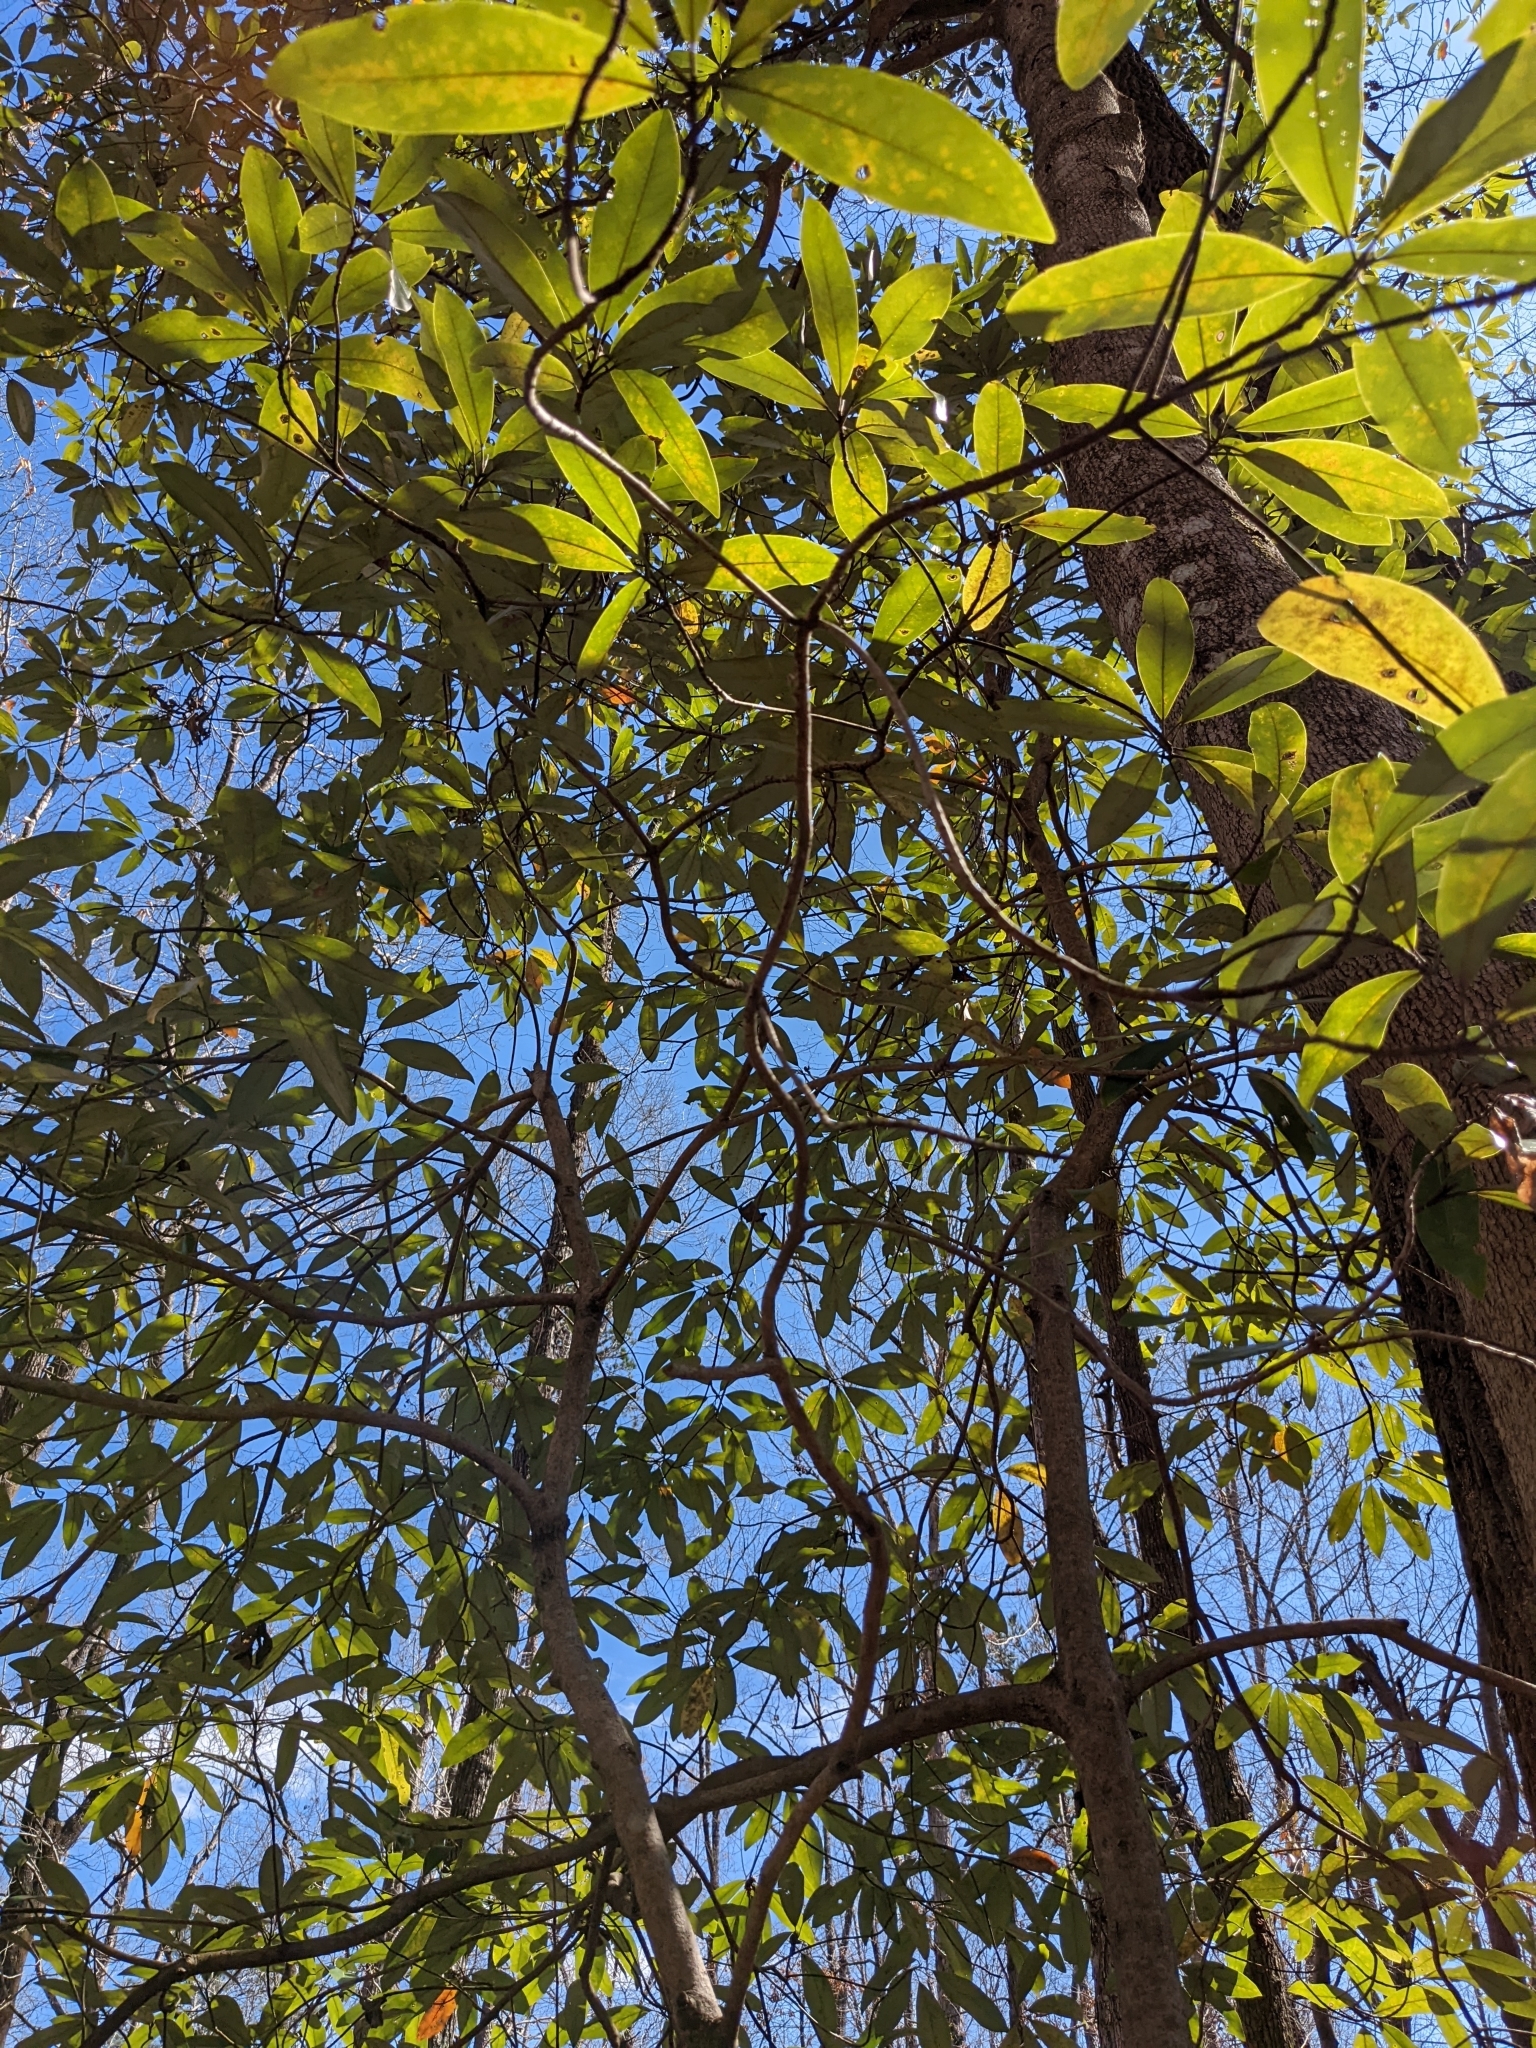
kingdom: Plantae
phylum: Tracheophyta
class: Magnoliopsida
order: Magnoliales
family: Magnoliaceae
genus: Magnolia
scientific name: Magnolia virginiana
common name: Swamp bay
